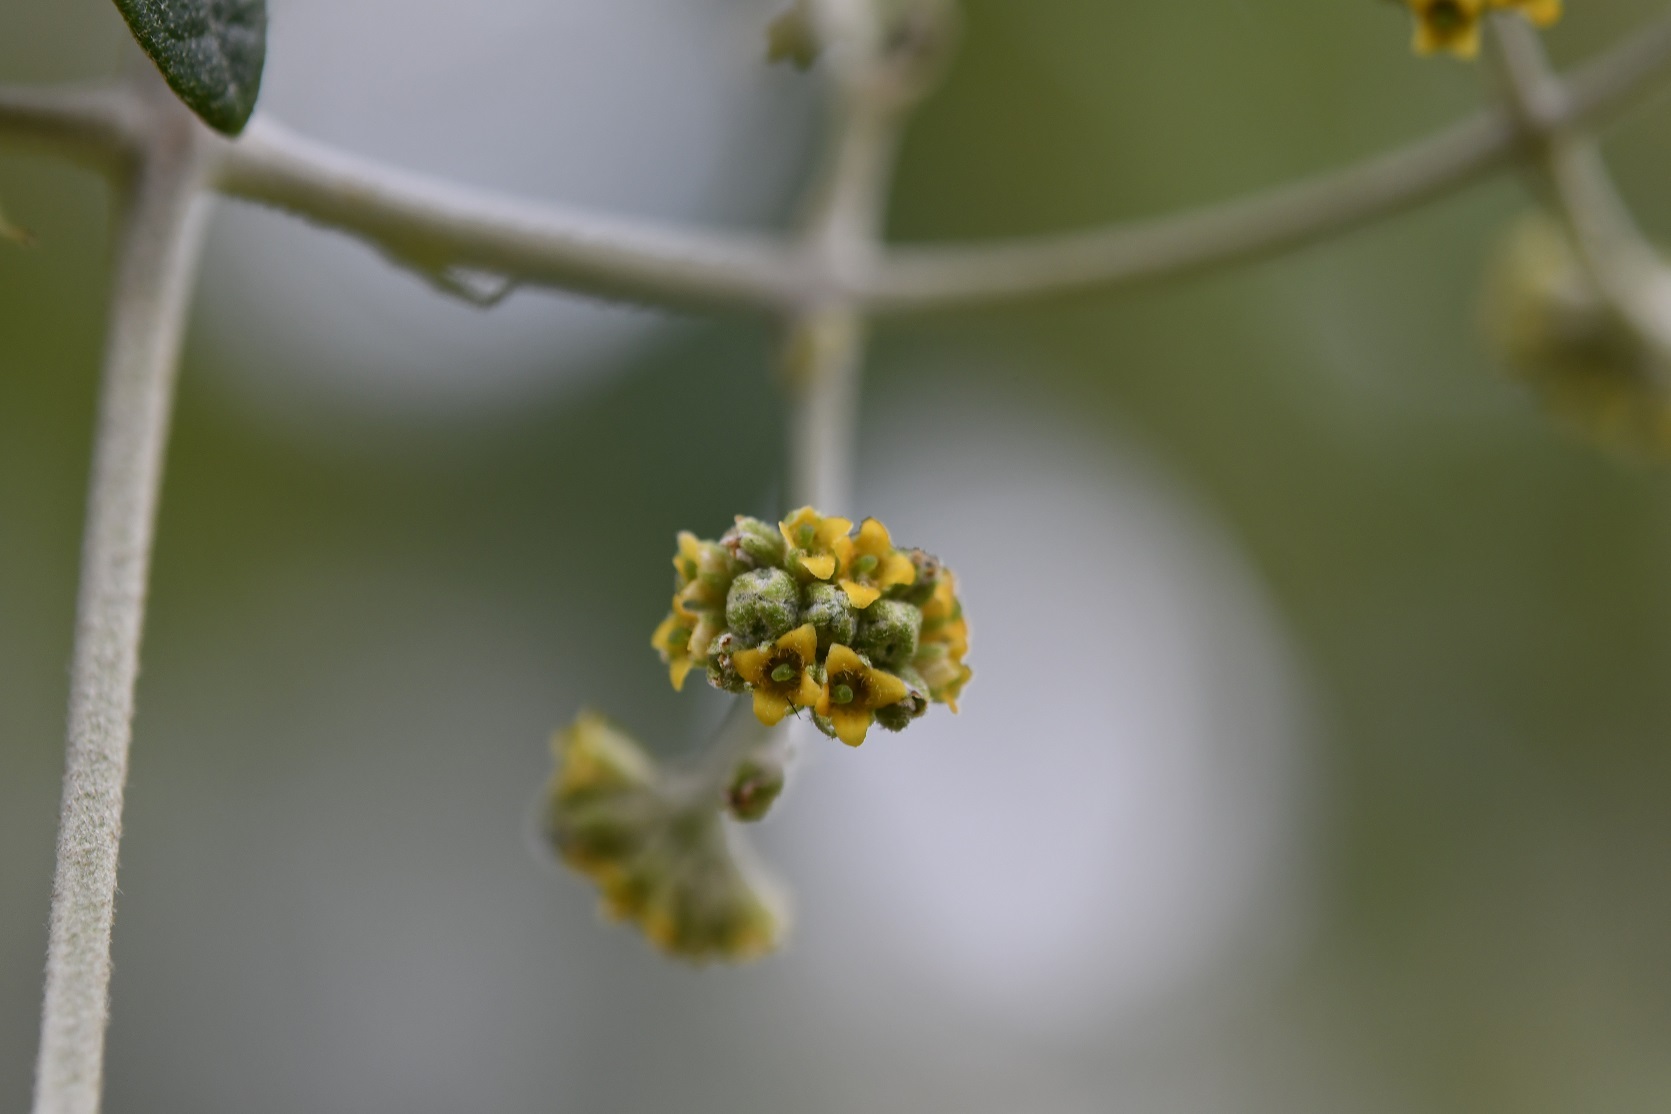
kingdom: Plantae
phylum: Tracheophyta
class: Magnoliopsida
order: Lamiales
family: Scrophulariaceae
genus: Buddleja
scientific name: Buddleja cordata
